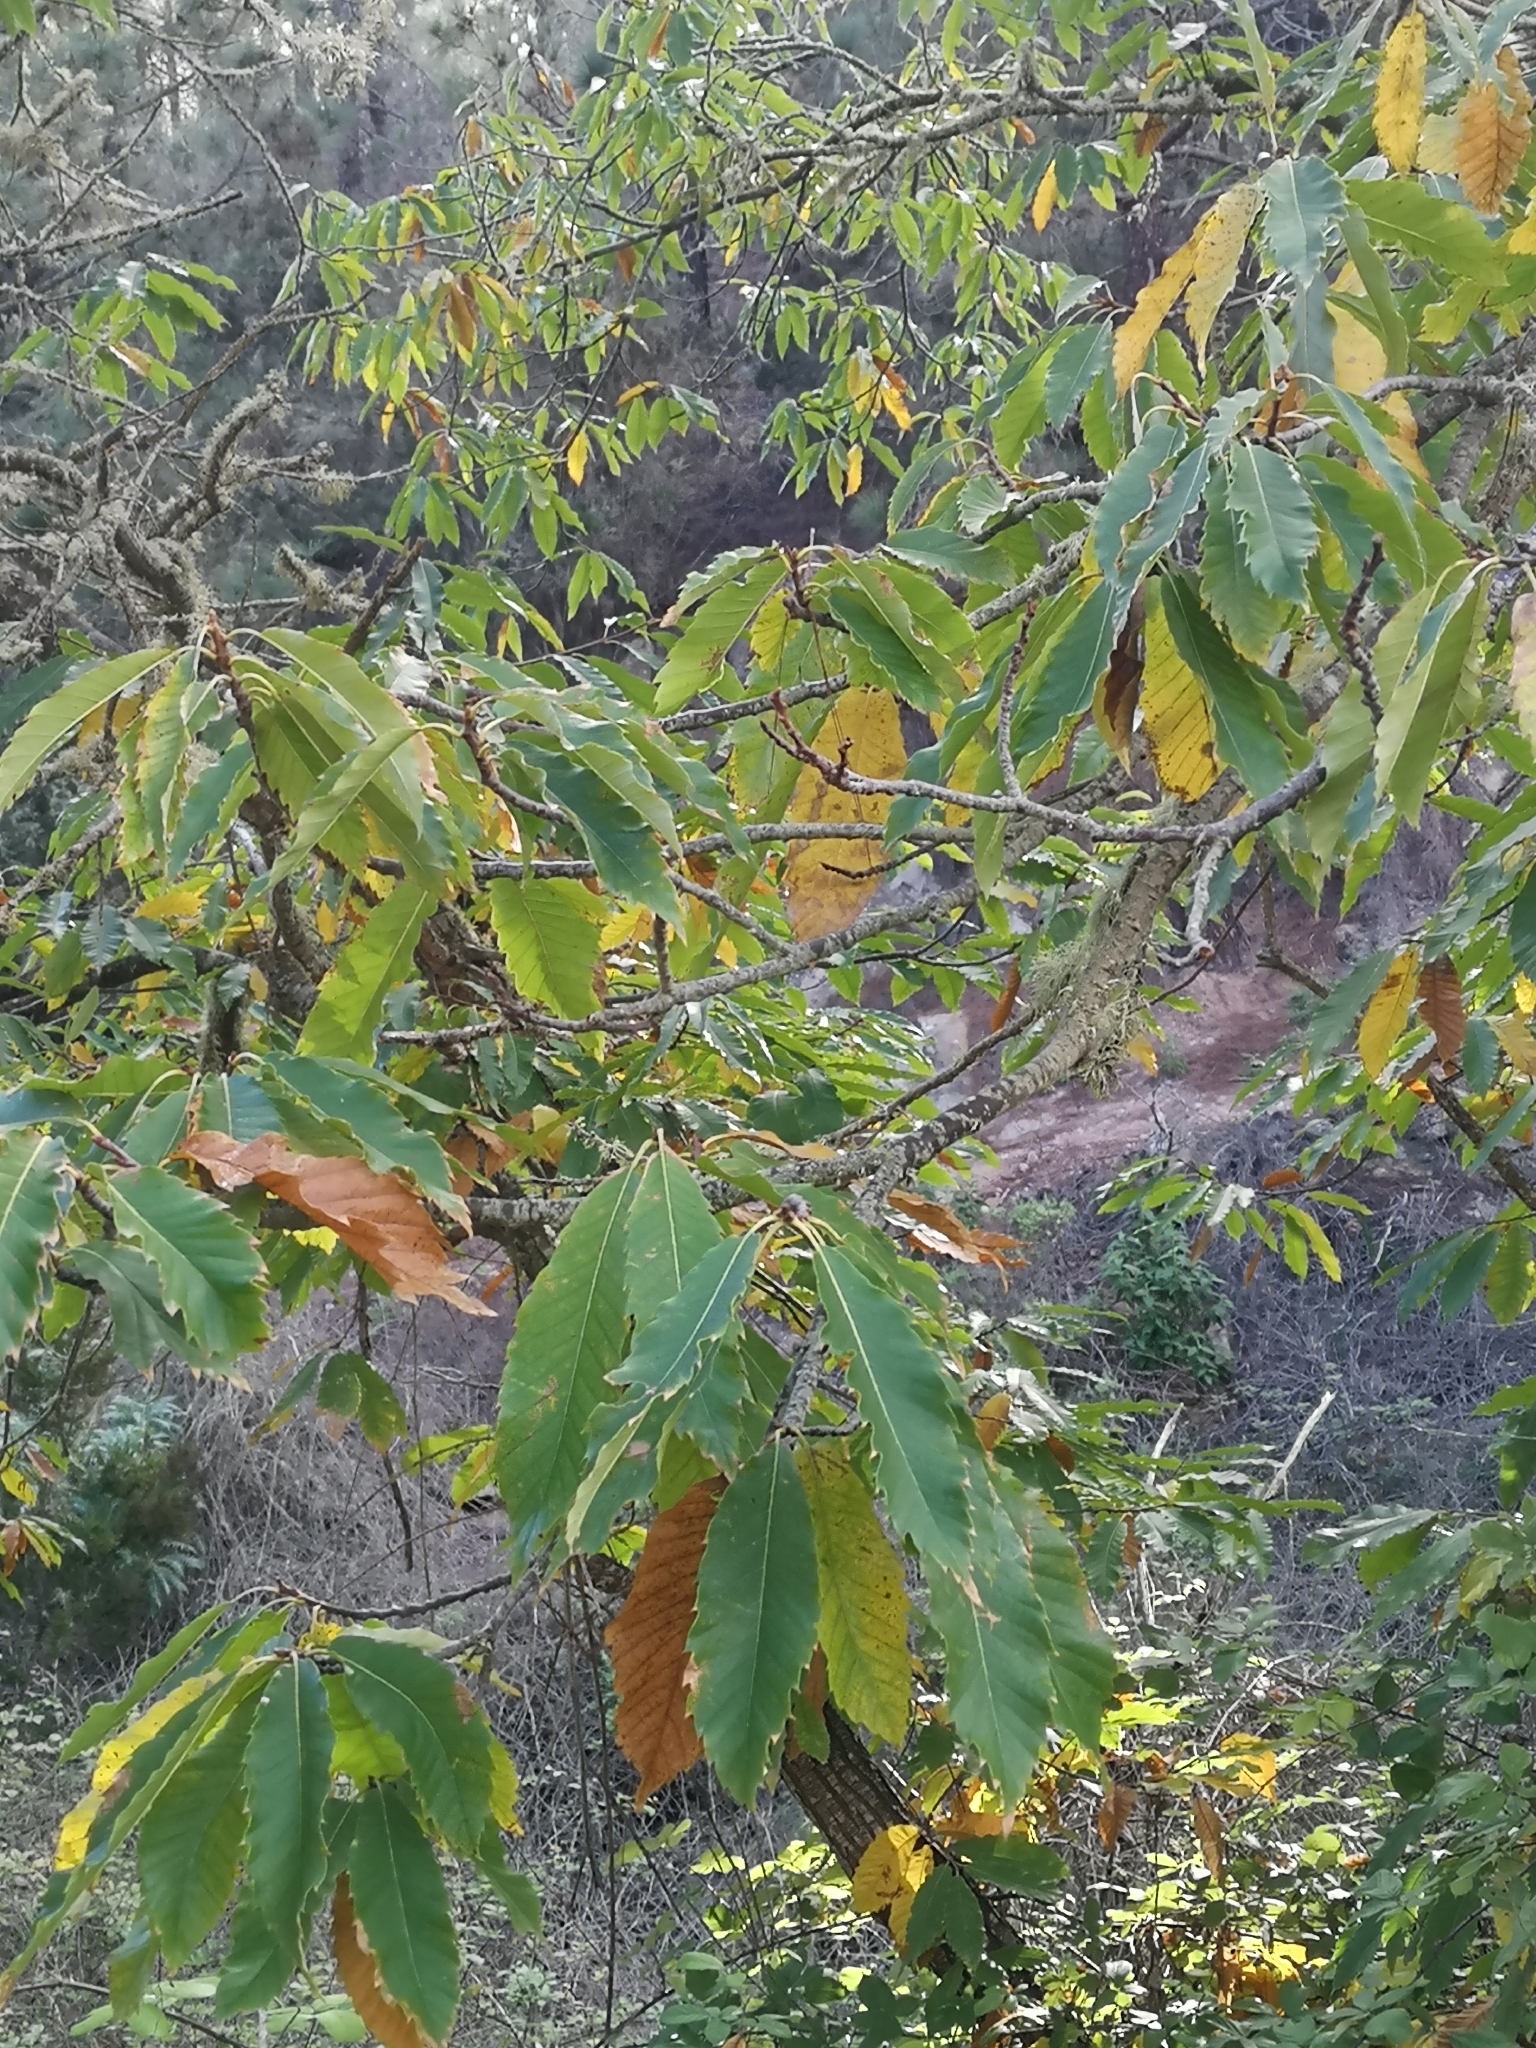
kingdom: Plantae
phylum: Tracheophyta
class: Magnoliopsida
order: Fagales
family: Fagaceae
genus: Castanea
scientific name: Castanea sativa
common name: Sweet chestnut
